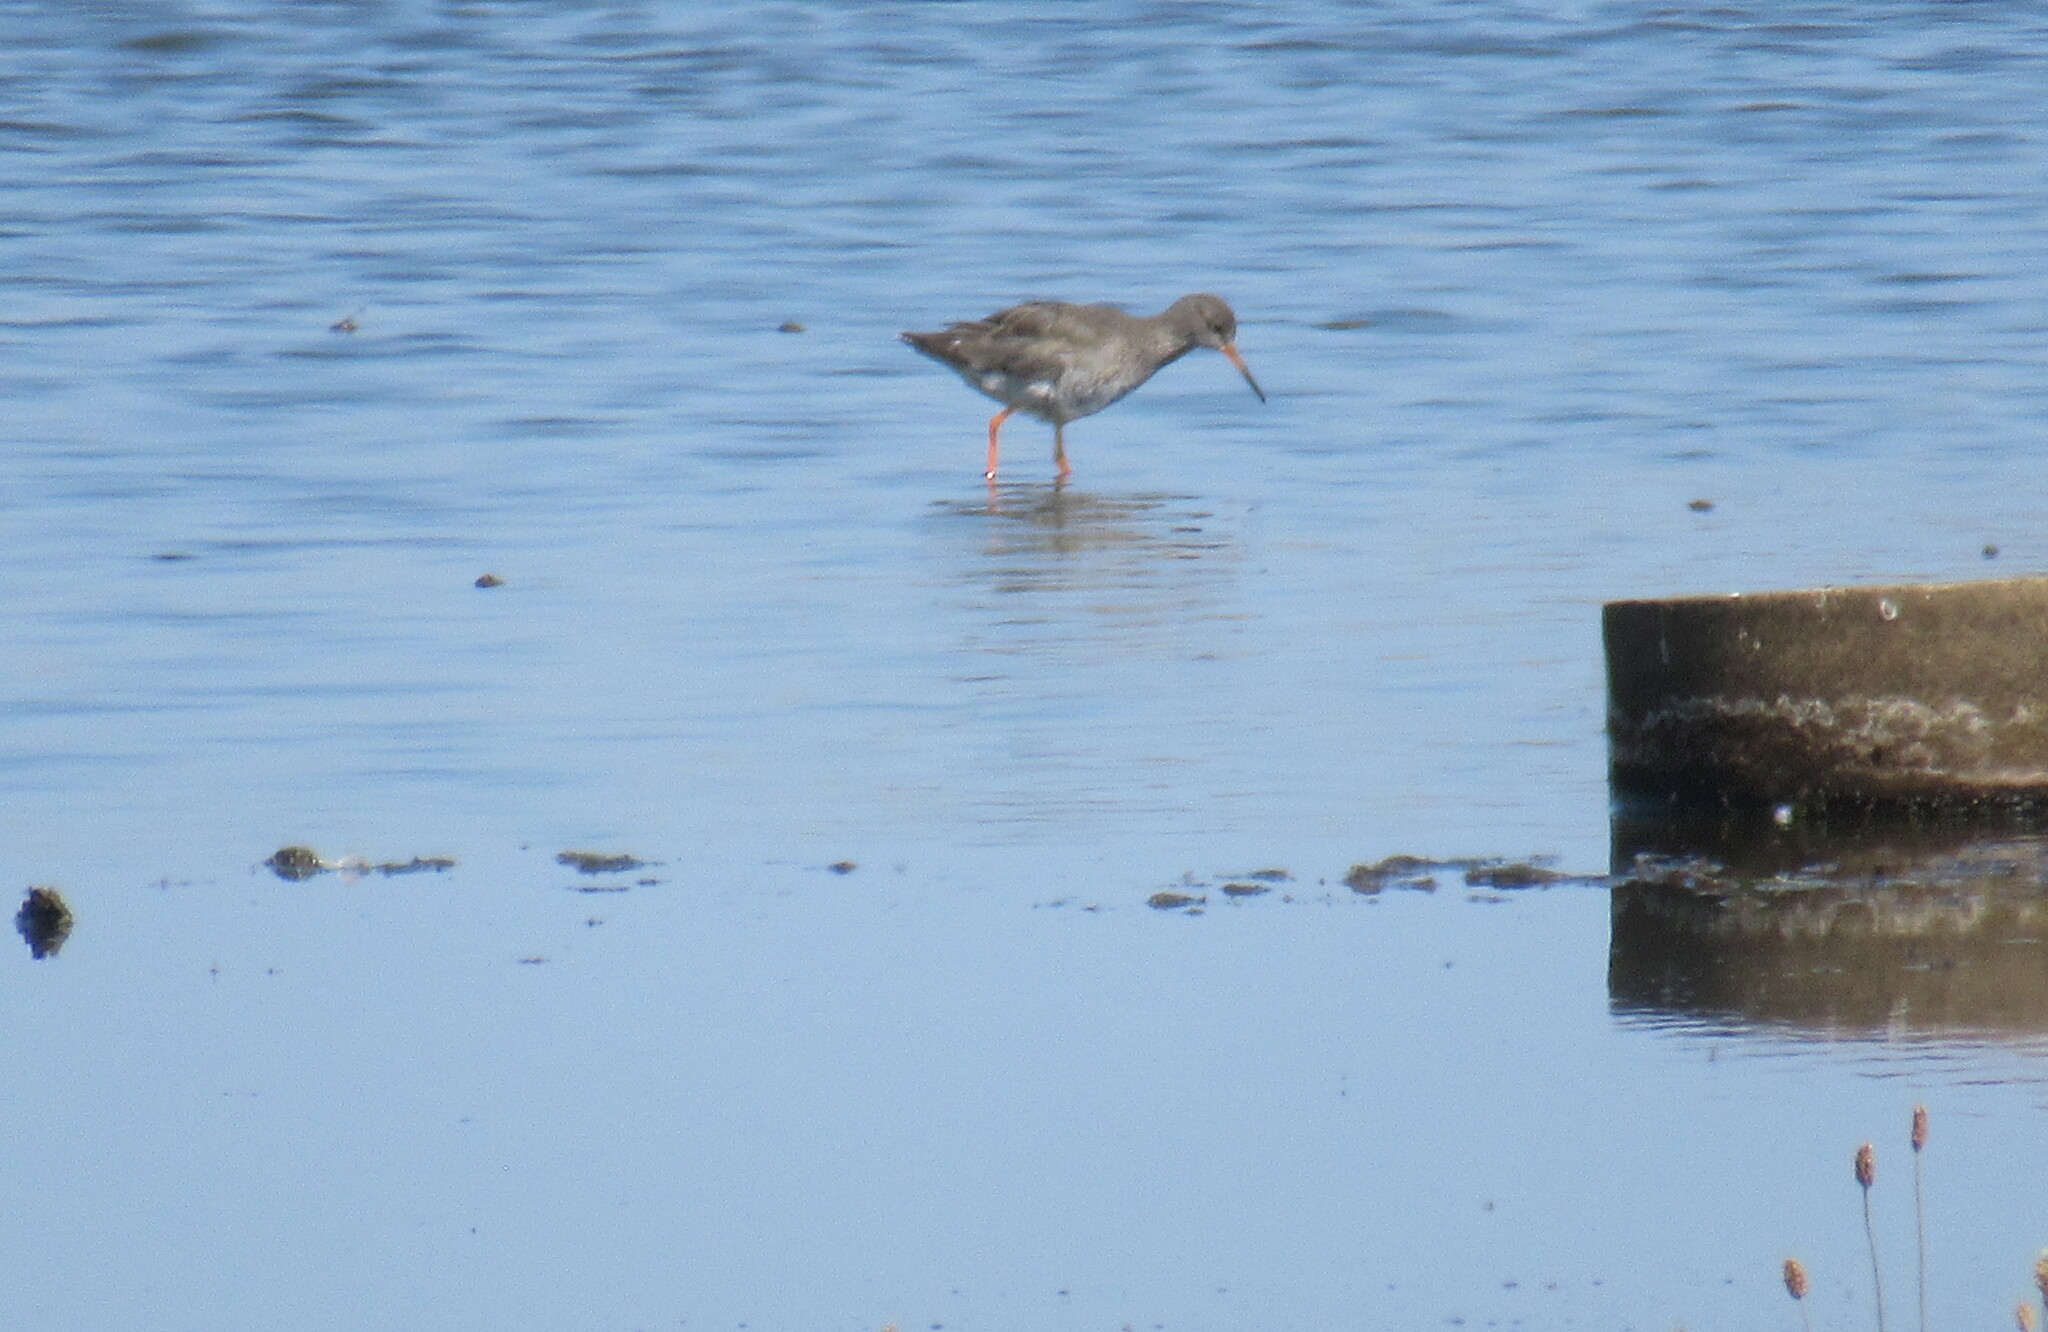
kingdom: Animalia
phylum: Chordata
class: Aves
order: Charadriiformes
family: Scolopacidae
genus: Tringa
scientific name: Tringa totanus
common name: Common redshank
